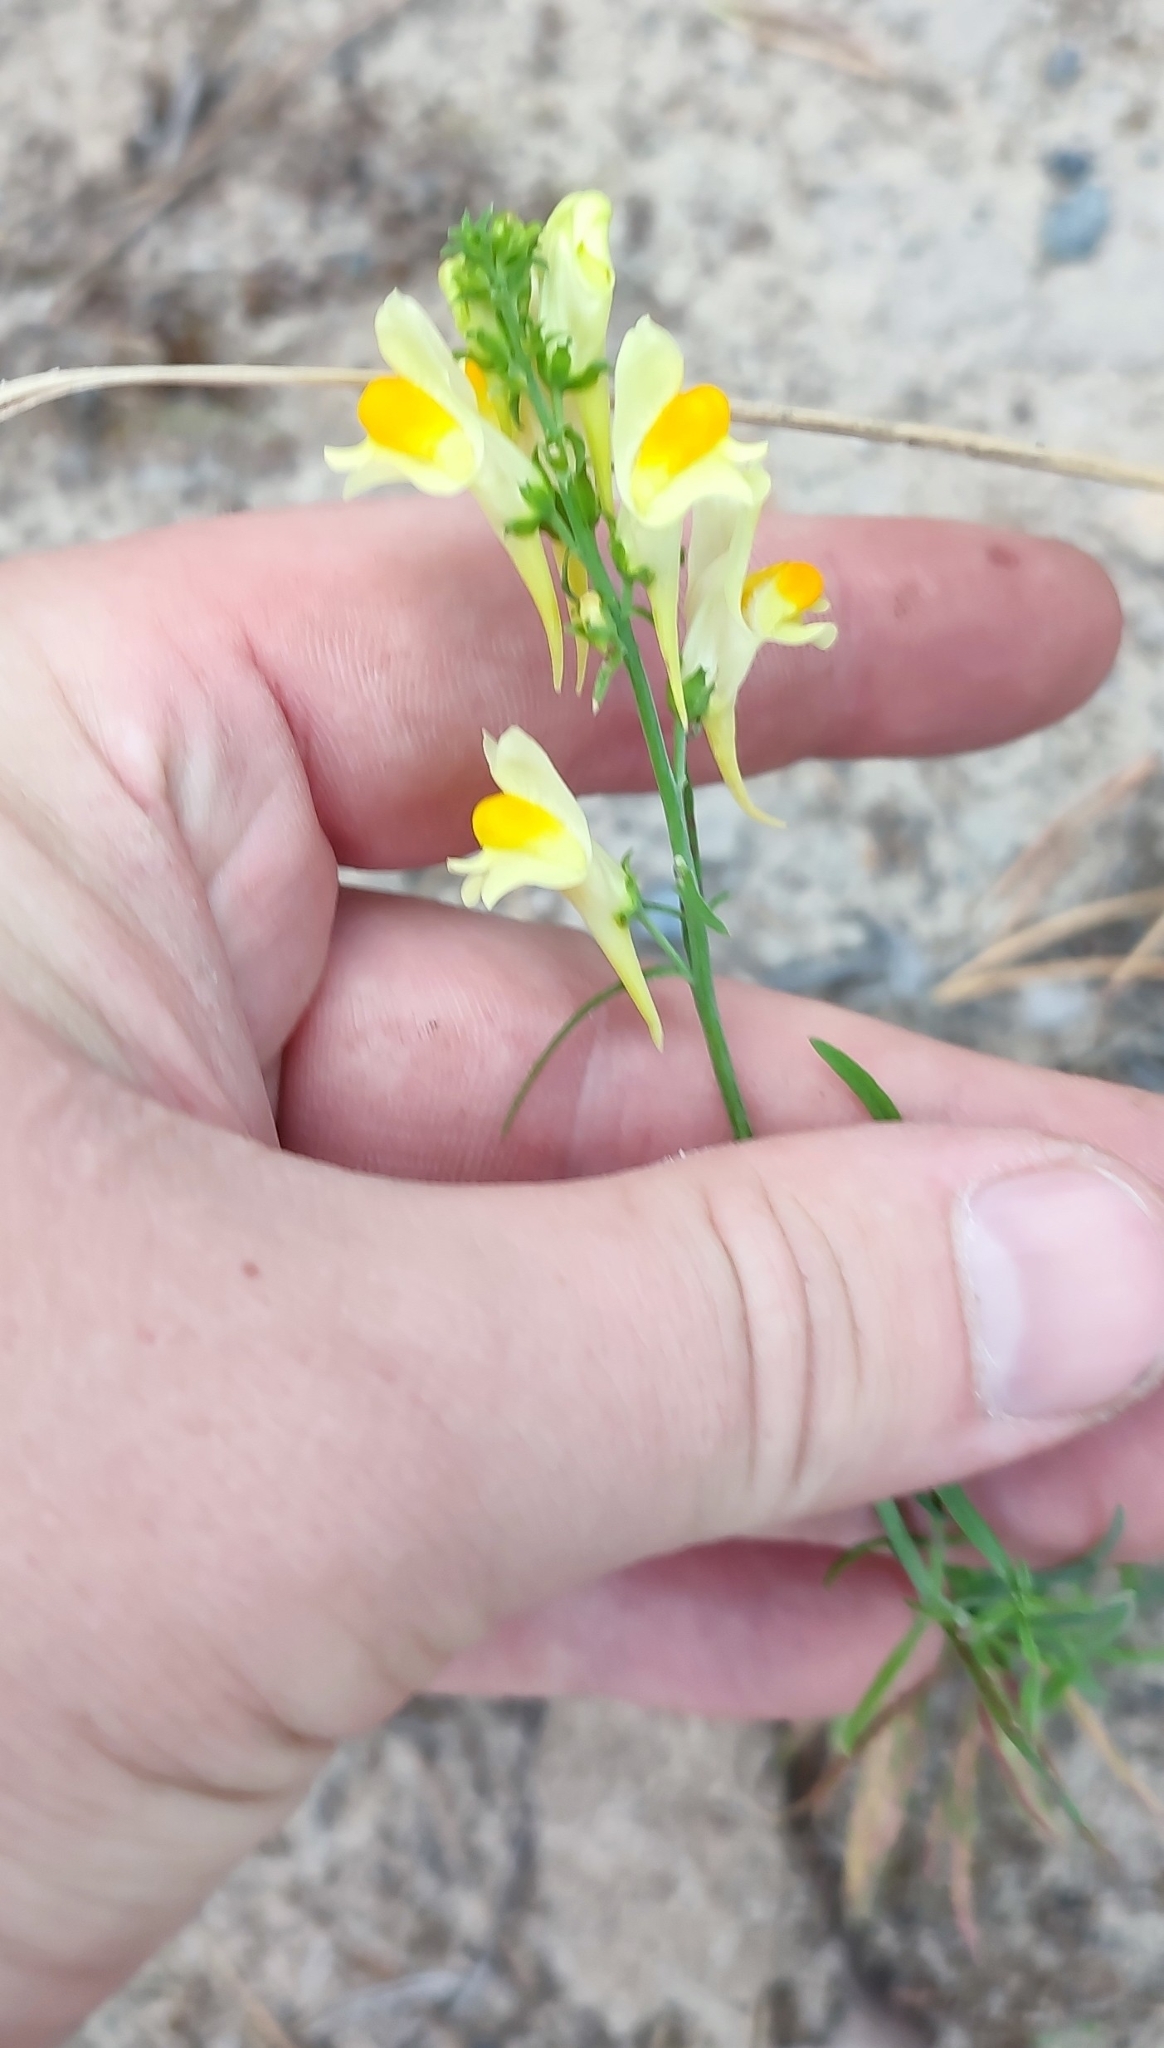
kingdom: Plantae
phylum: Tracheophyta
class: Magnoliopsida
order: Lamiales
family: Plantaginaceae
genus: Linaria
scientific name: Linaria vulgaris
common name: Butter and eggs
